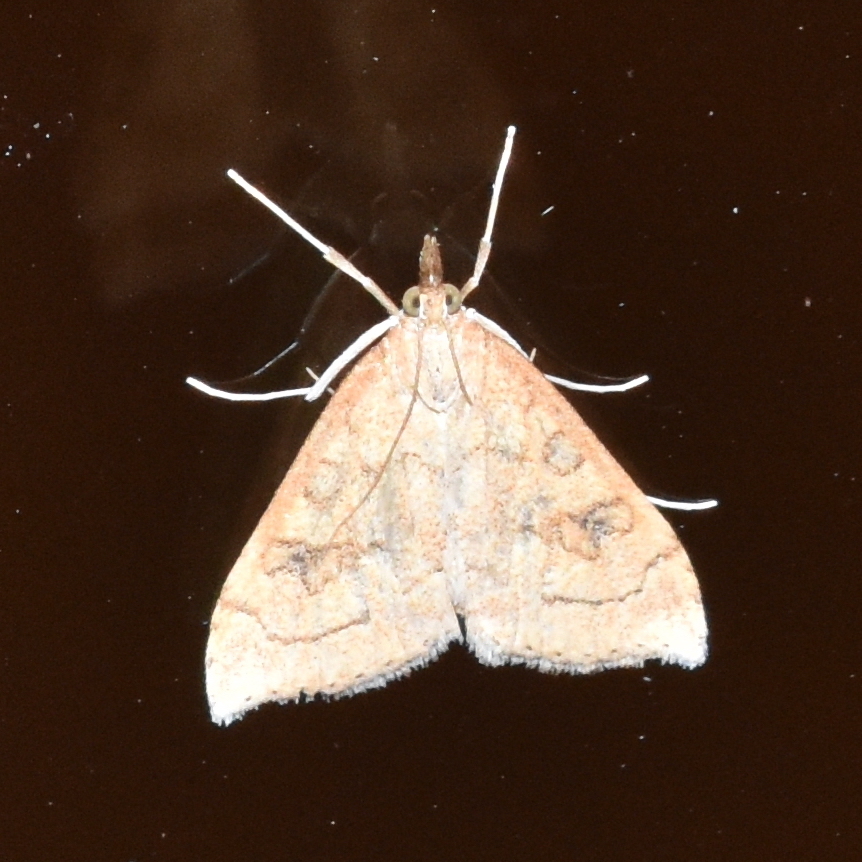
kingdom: Animalia
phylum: Arthropoda
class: Insecta
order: Lepidoptera
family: Crambidae
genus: Udea
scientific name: Udea profundalis
